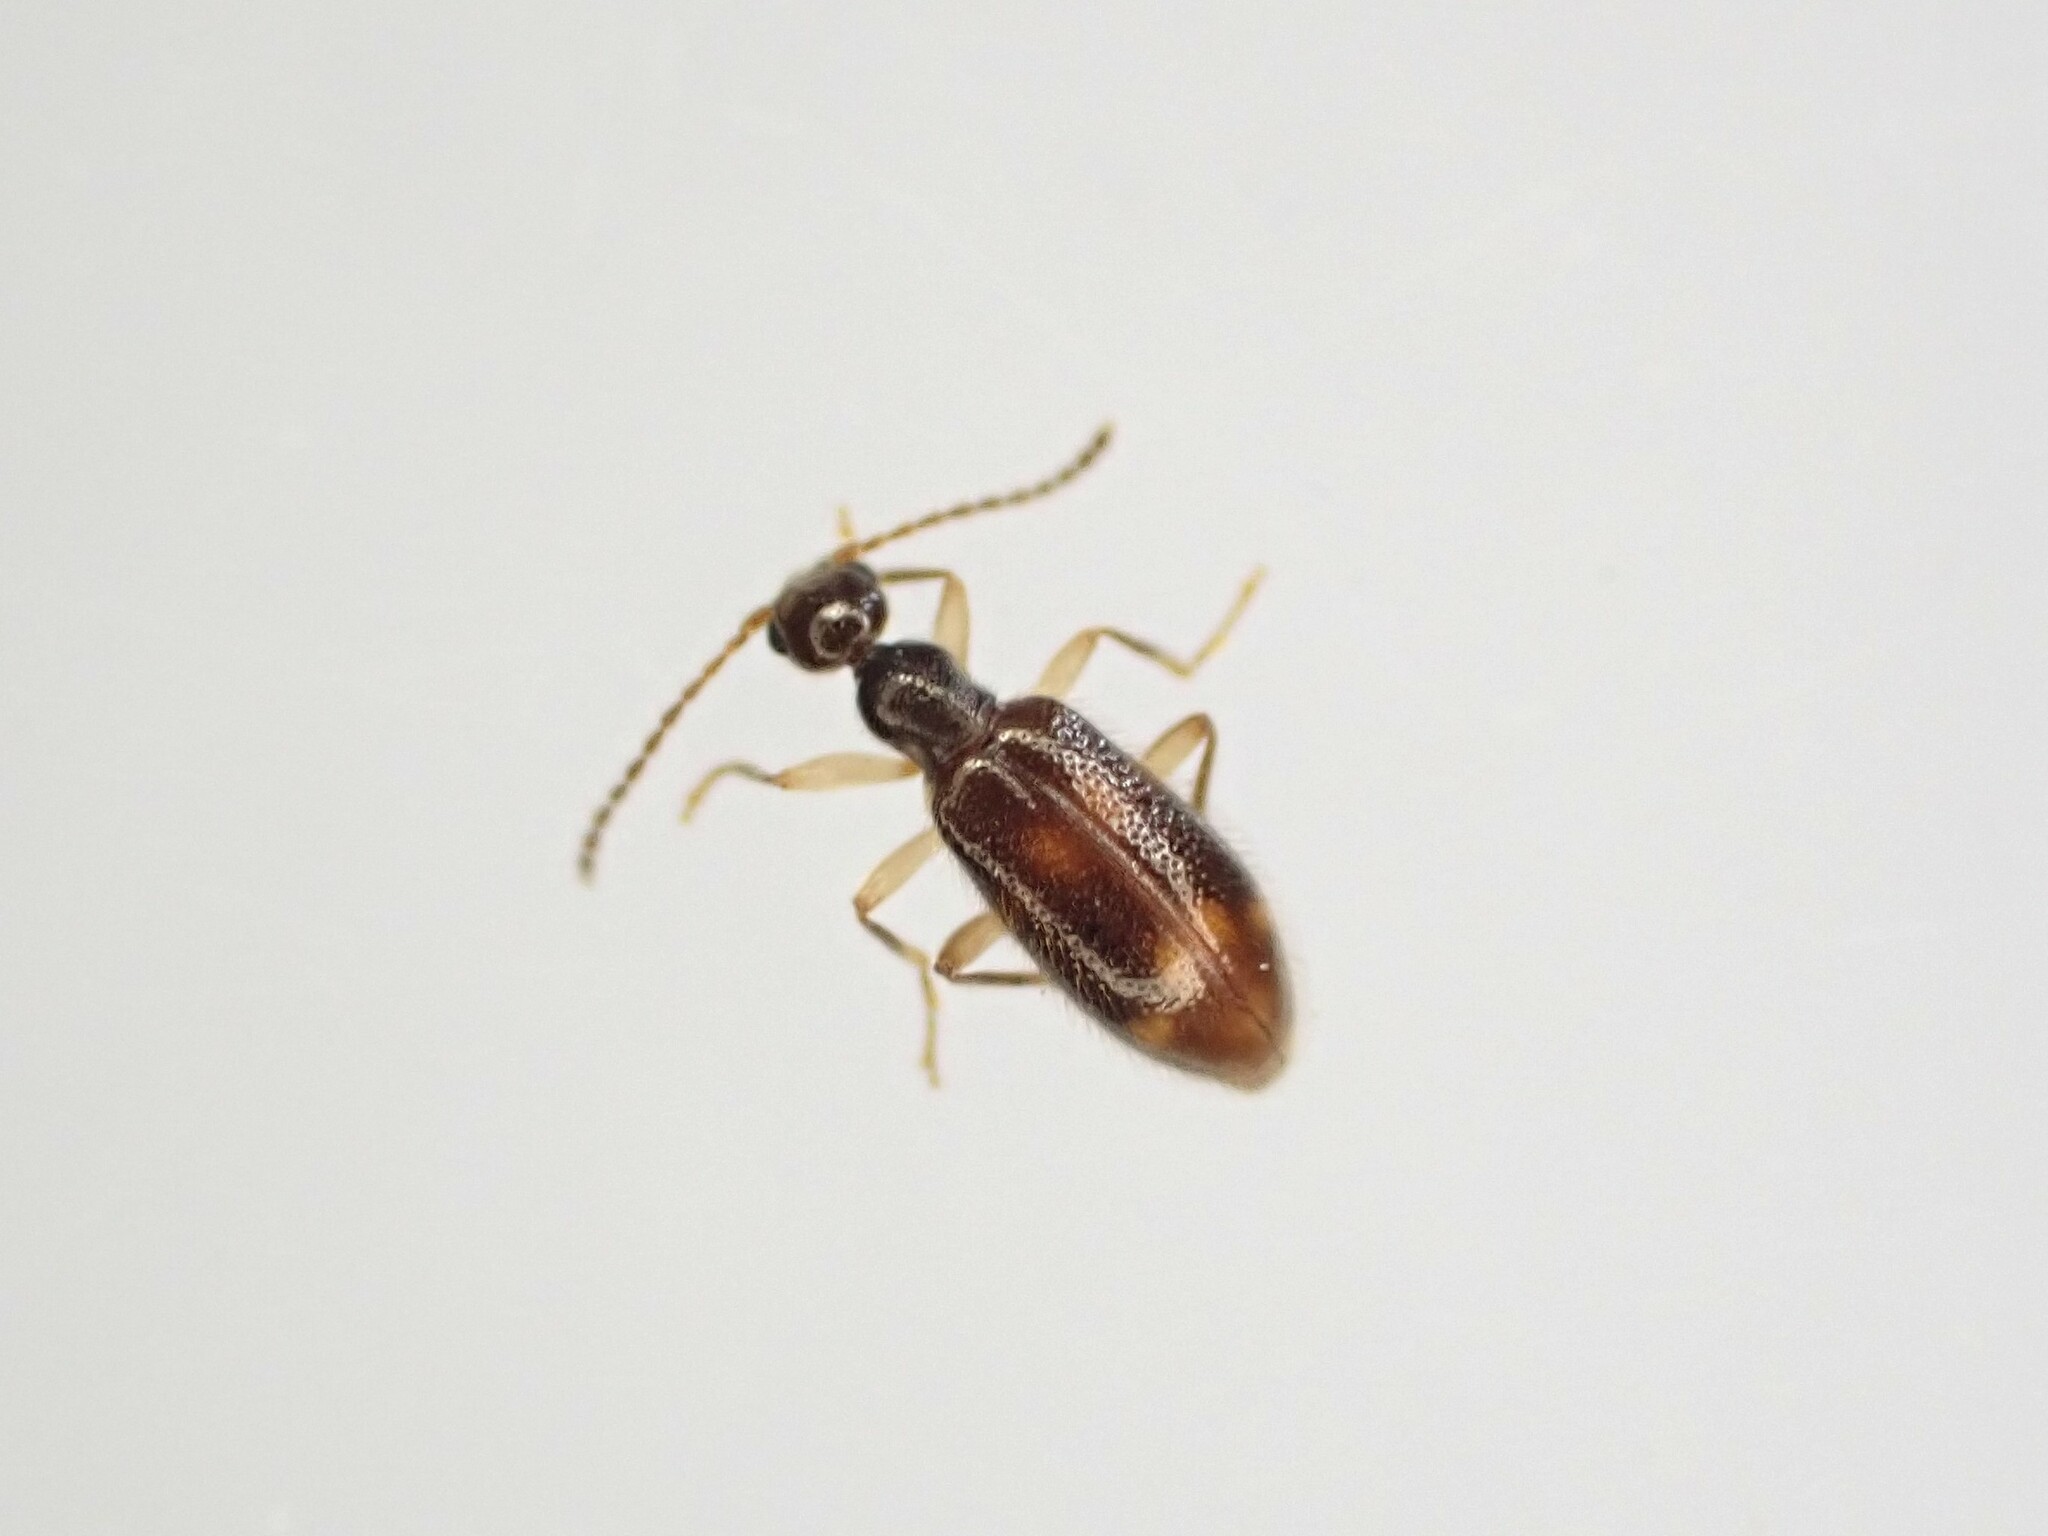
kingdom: Animalia
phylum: Arthropoda
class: Insecta
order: Coleoptera
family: Anthicidae
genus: Sapintus
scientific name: Sapintus pellucidipes
